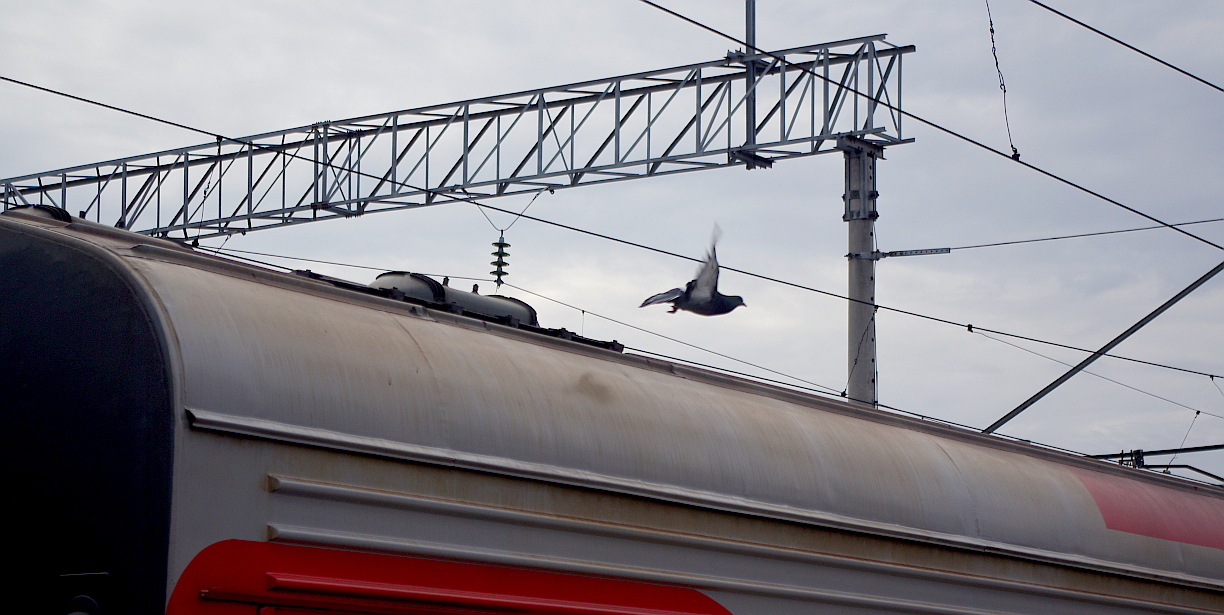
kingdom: Animalia
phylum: Chordata
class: Aves
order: Columbiformes
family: Columbidae
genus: Columba
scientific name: Columba livia
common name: Rock pigeon
